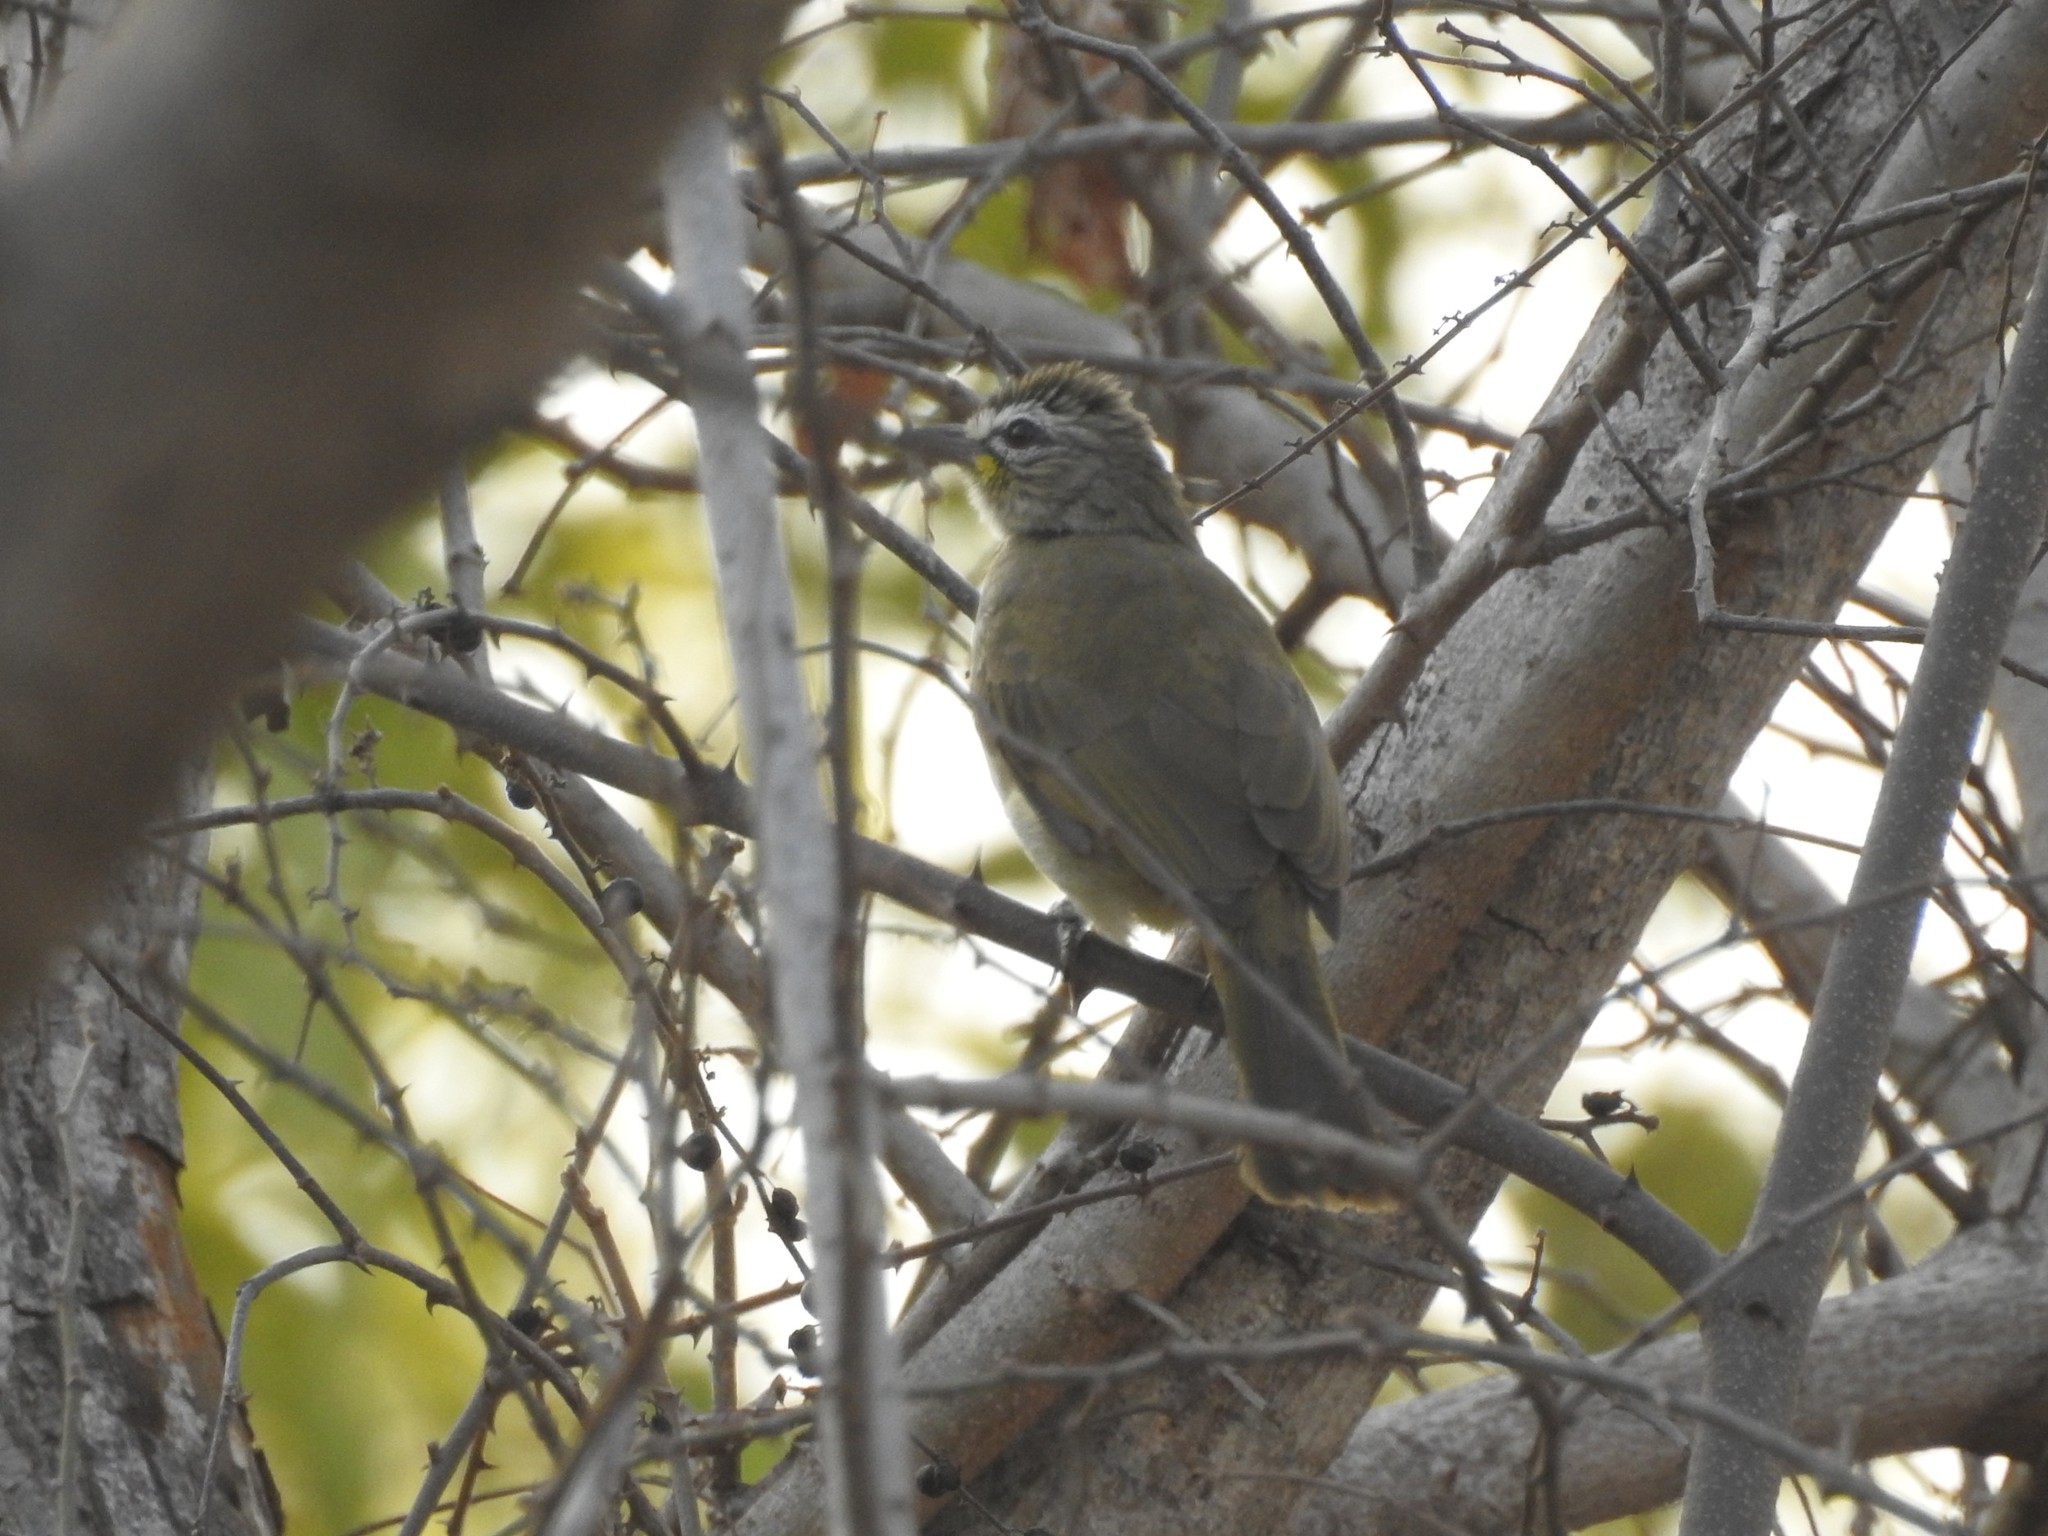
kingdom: Animalia
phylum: Chordata
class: Aves
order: Passeriformes
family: Pycnonotidae
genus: Pycnonotus
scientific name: Pycnonotus luteolus
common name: White-browed bulbul
